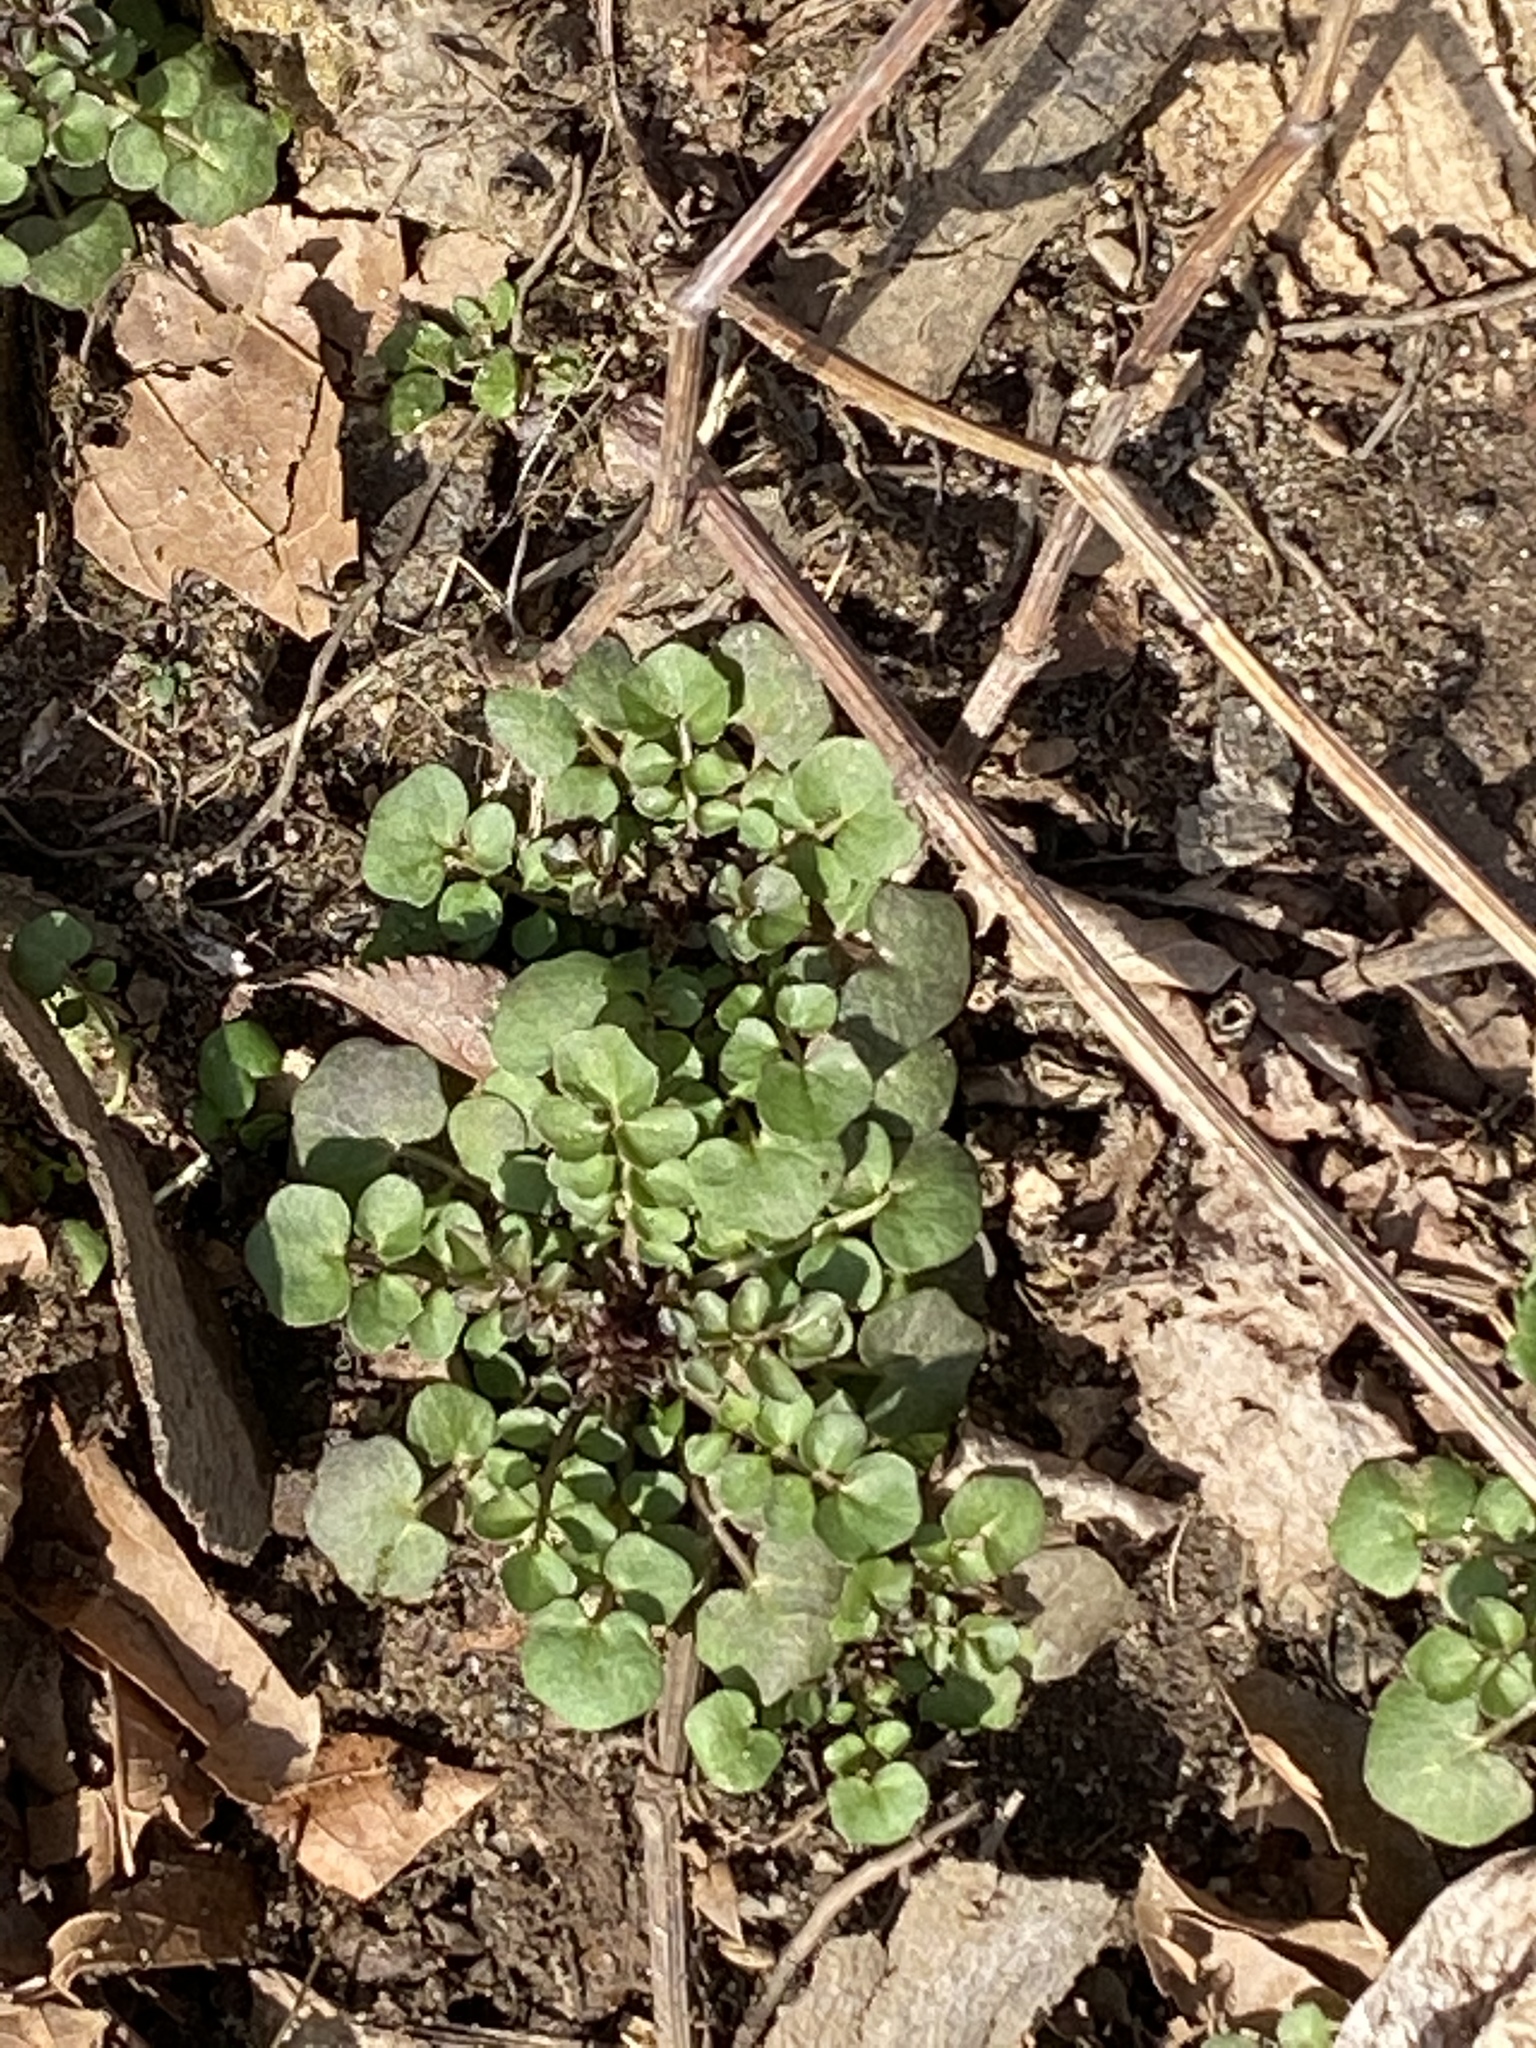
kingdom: Plantae
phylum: Tracheophyta
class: Magnoliopsida
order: Brassicales
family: Brassicaceae
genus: Cardamine
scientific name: Cardamine hirsuta
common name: Hairy bittercress
